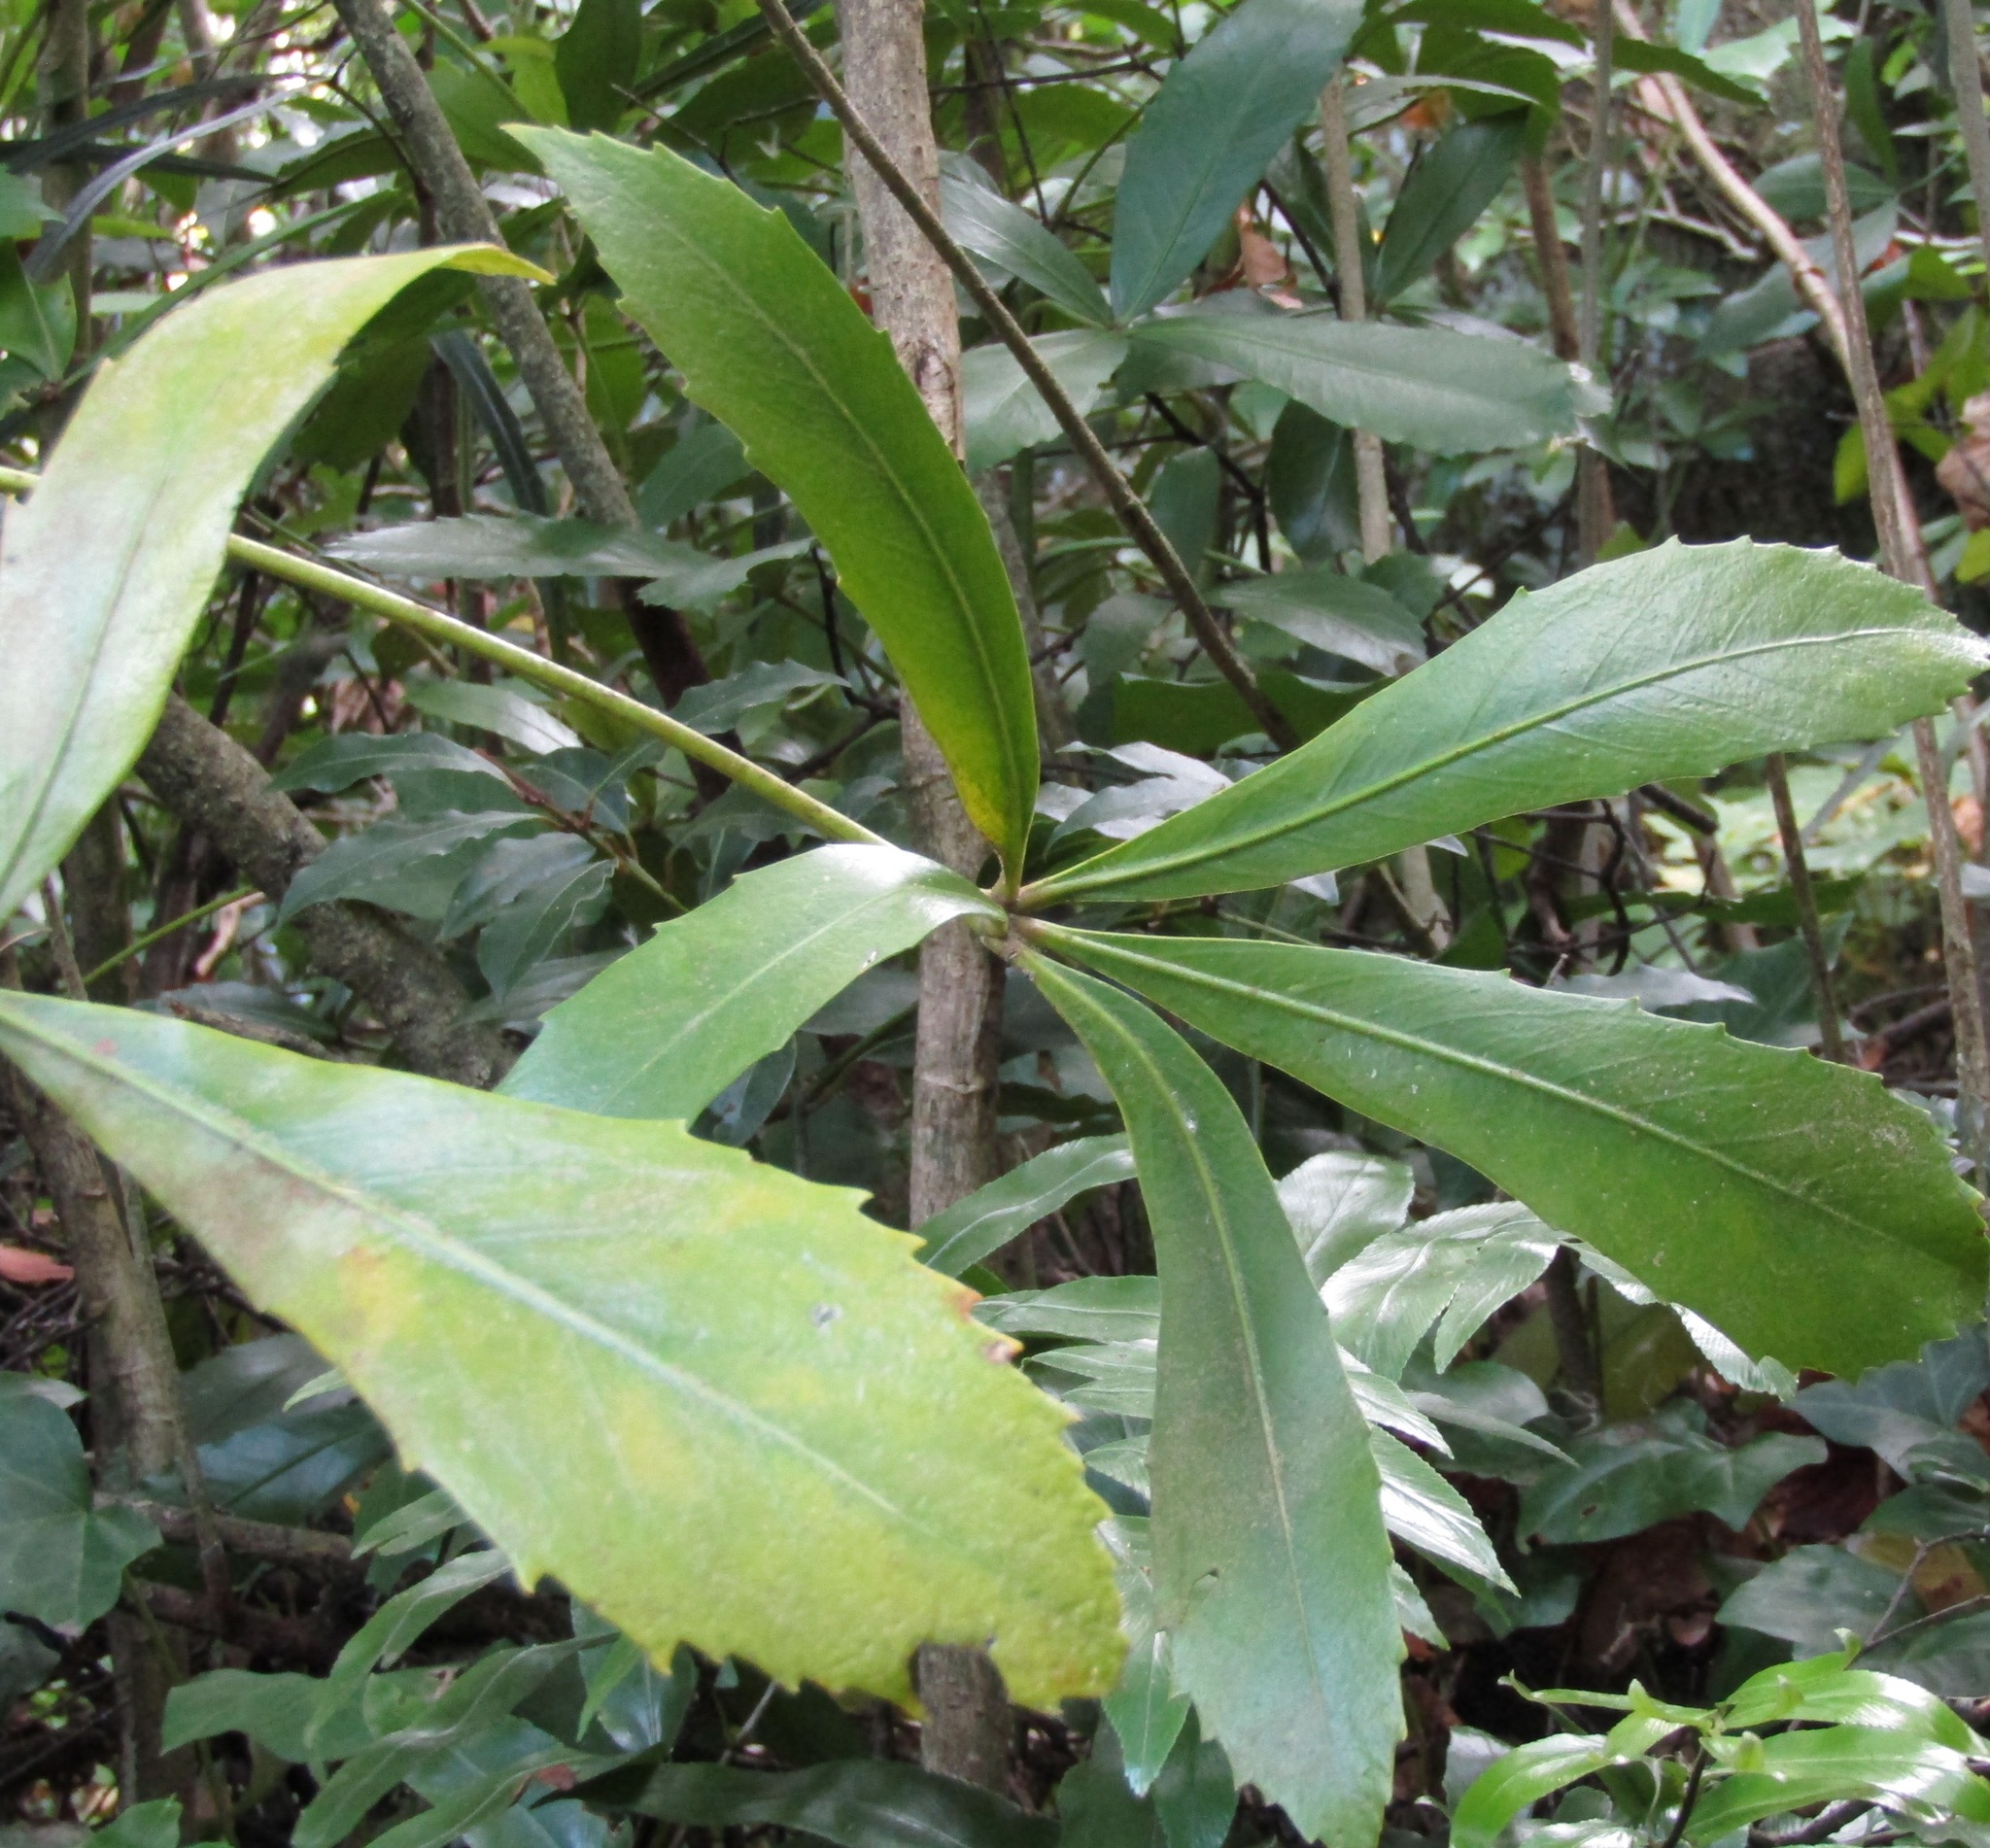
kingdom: Plantae
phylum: Tracheophyta
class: Magnoliopsida
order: Apiales
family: Araliaceae
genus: Pseudopanax
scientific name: Pseudopanax
